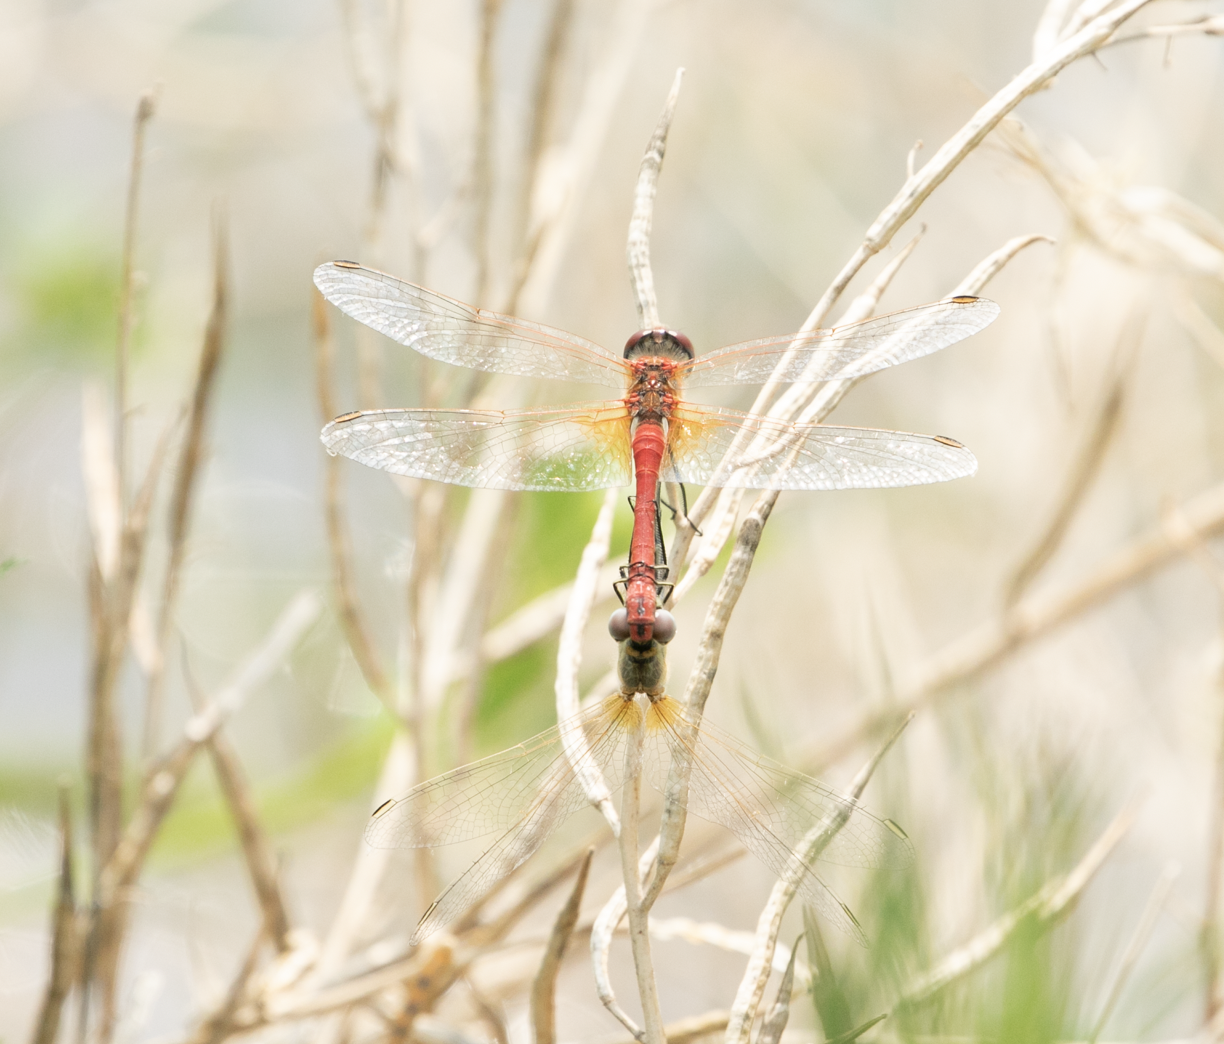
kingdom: Animalia
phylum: Arthropoda
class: Insecta
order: Odonata
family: Libellulidae
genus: Sympetrum
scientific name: Sympetrum fonscolombii
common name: Red-veined darter
